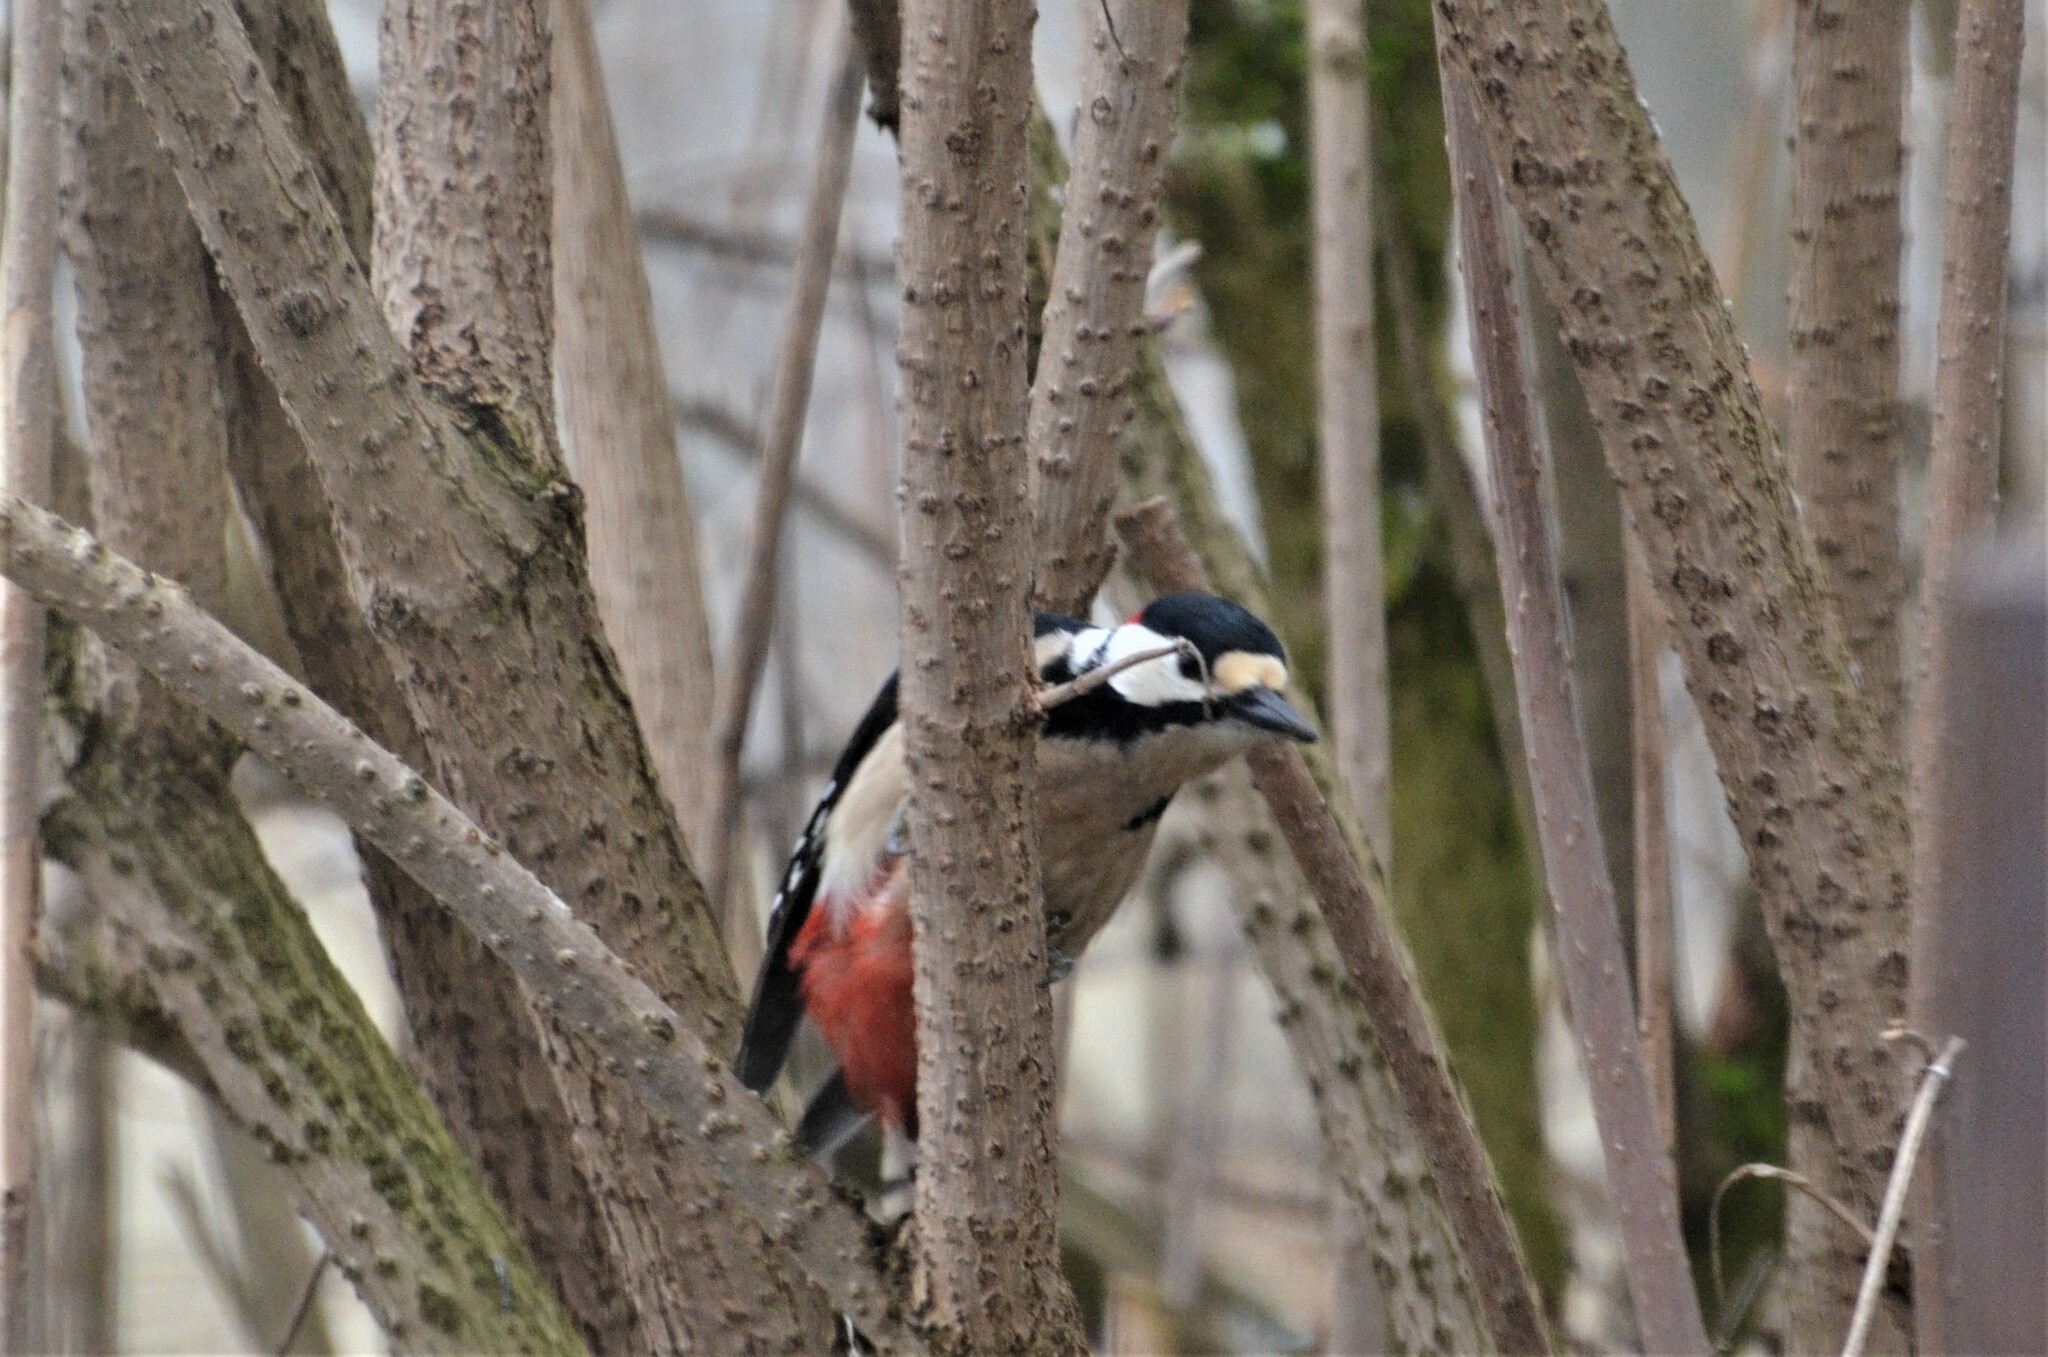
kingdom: Animalia
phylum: Chordata
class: Aves
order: Piciformes
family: Picidae
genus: Dendrocopos
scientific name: Dendrocopos major
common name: Great spotted woodpecker
